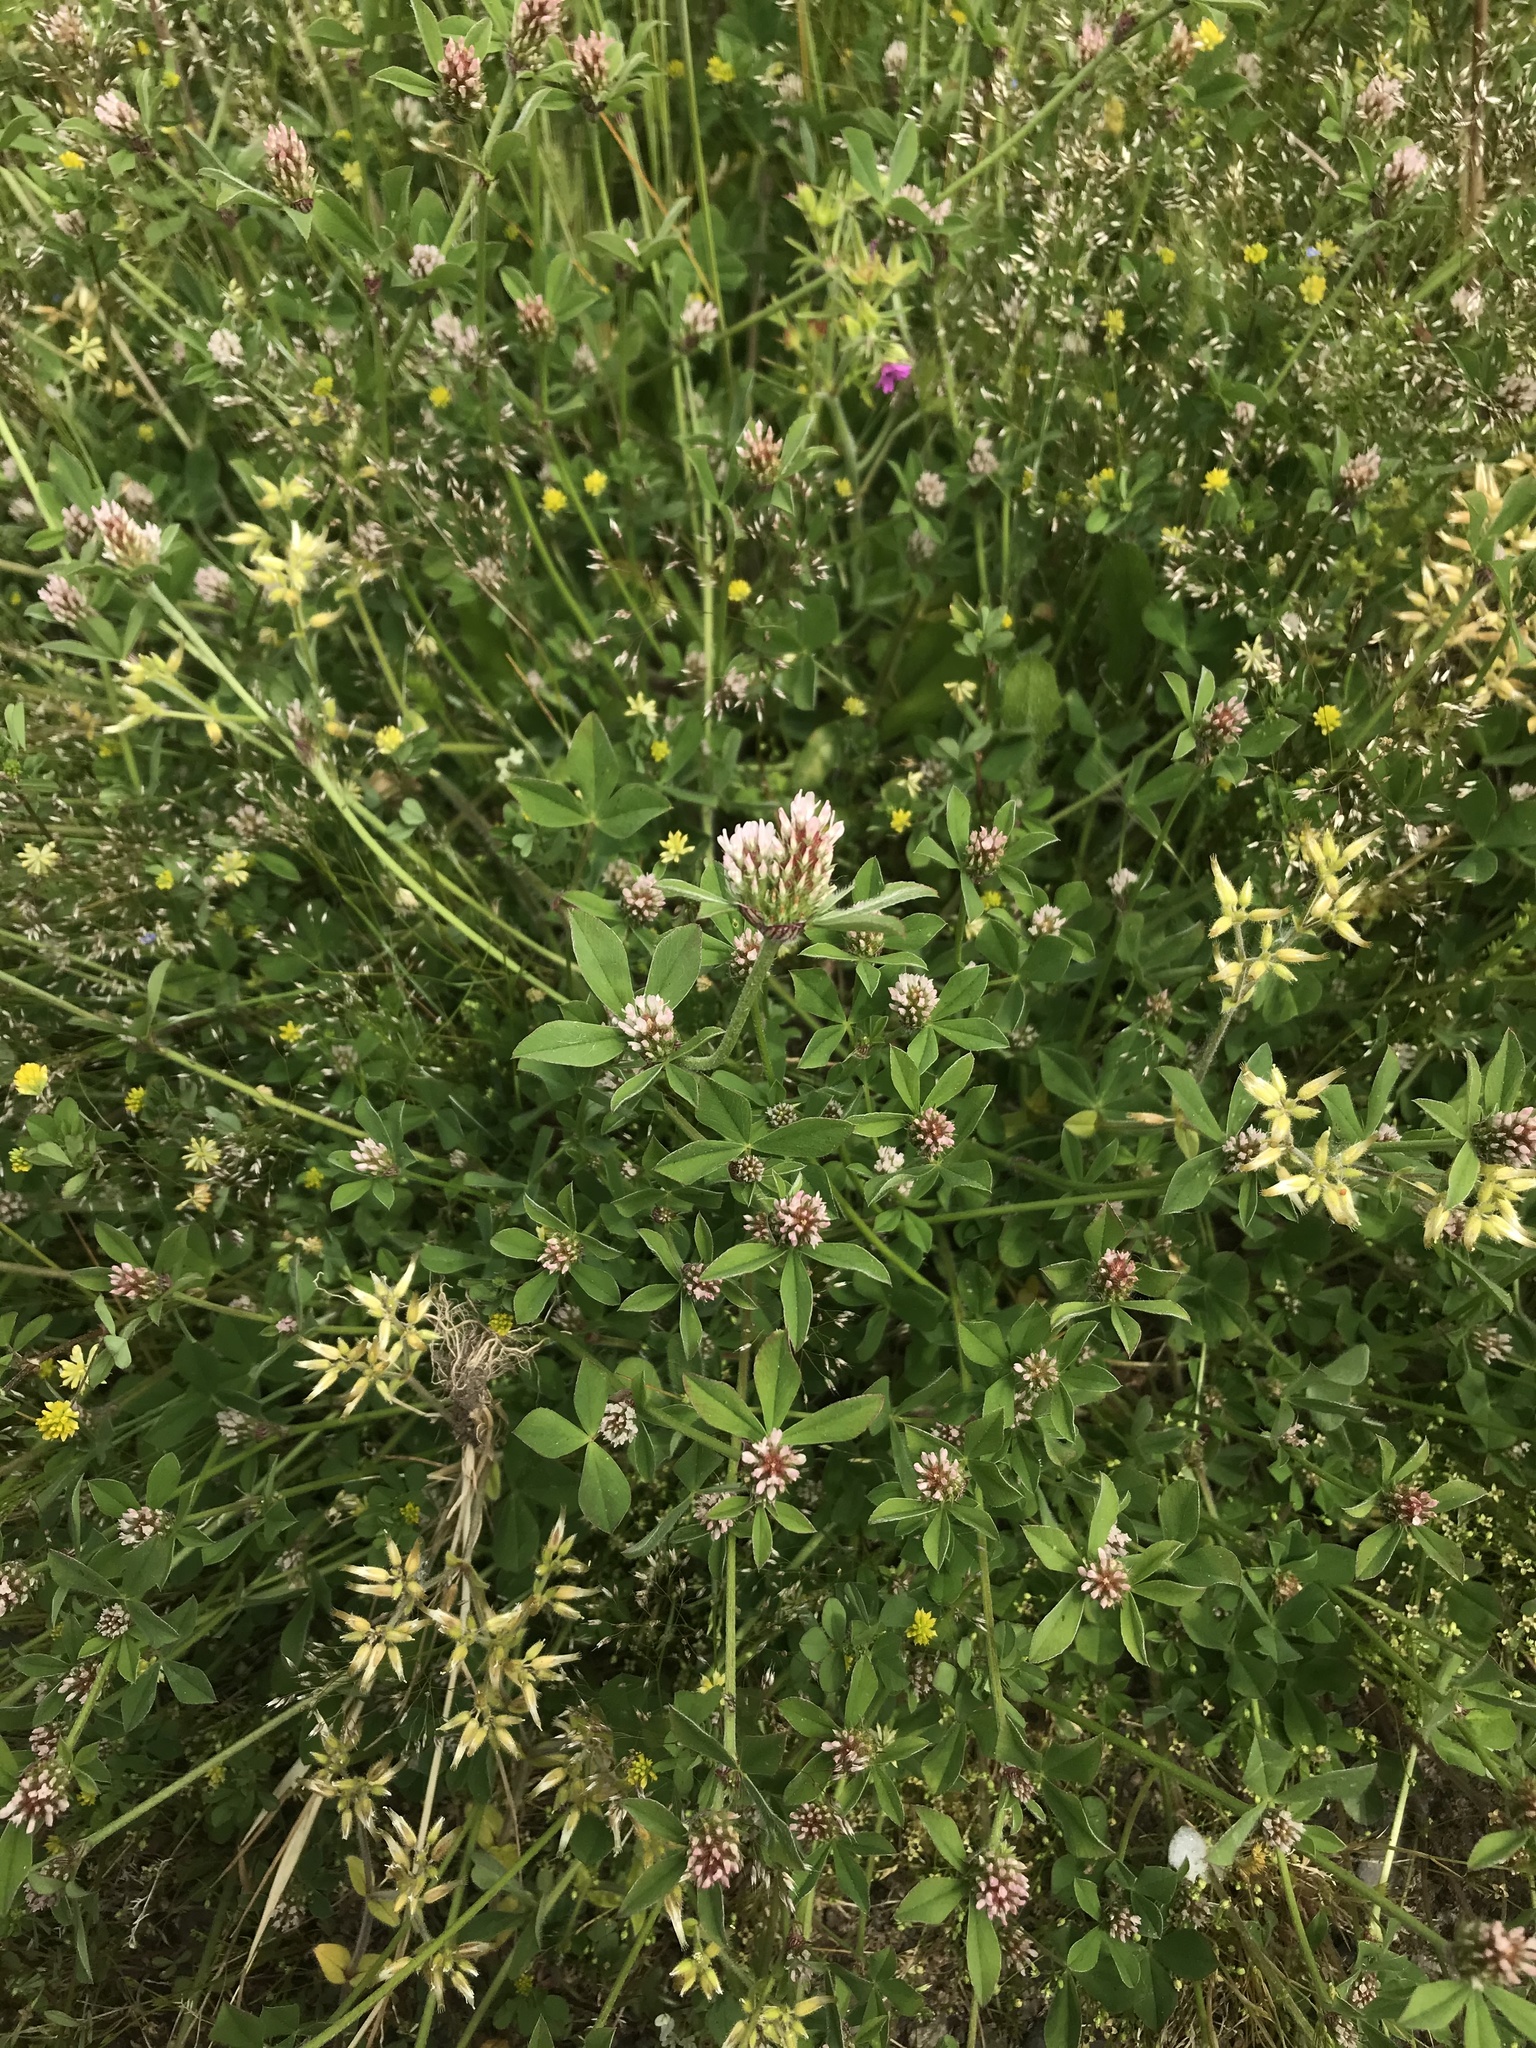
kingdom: Plantae
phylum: Tracheophyta
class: Magnoliopsida
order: Fabales
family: Fabaceae
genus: Trifolium
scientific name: Trifolium striatum
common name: Knotted clover
